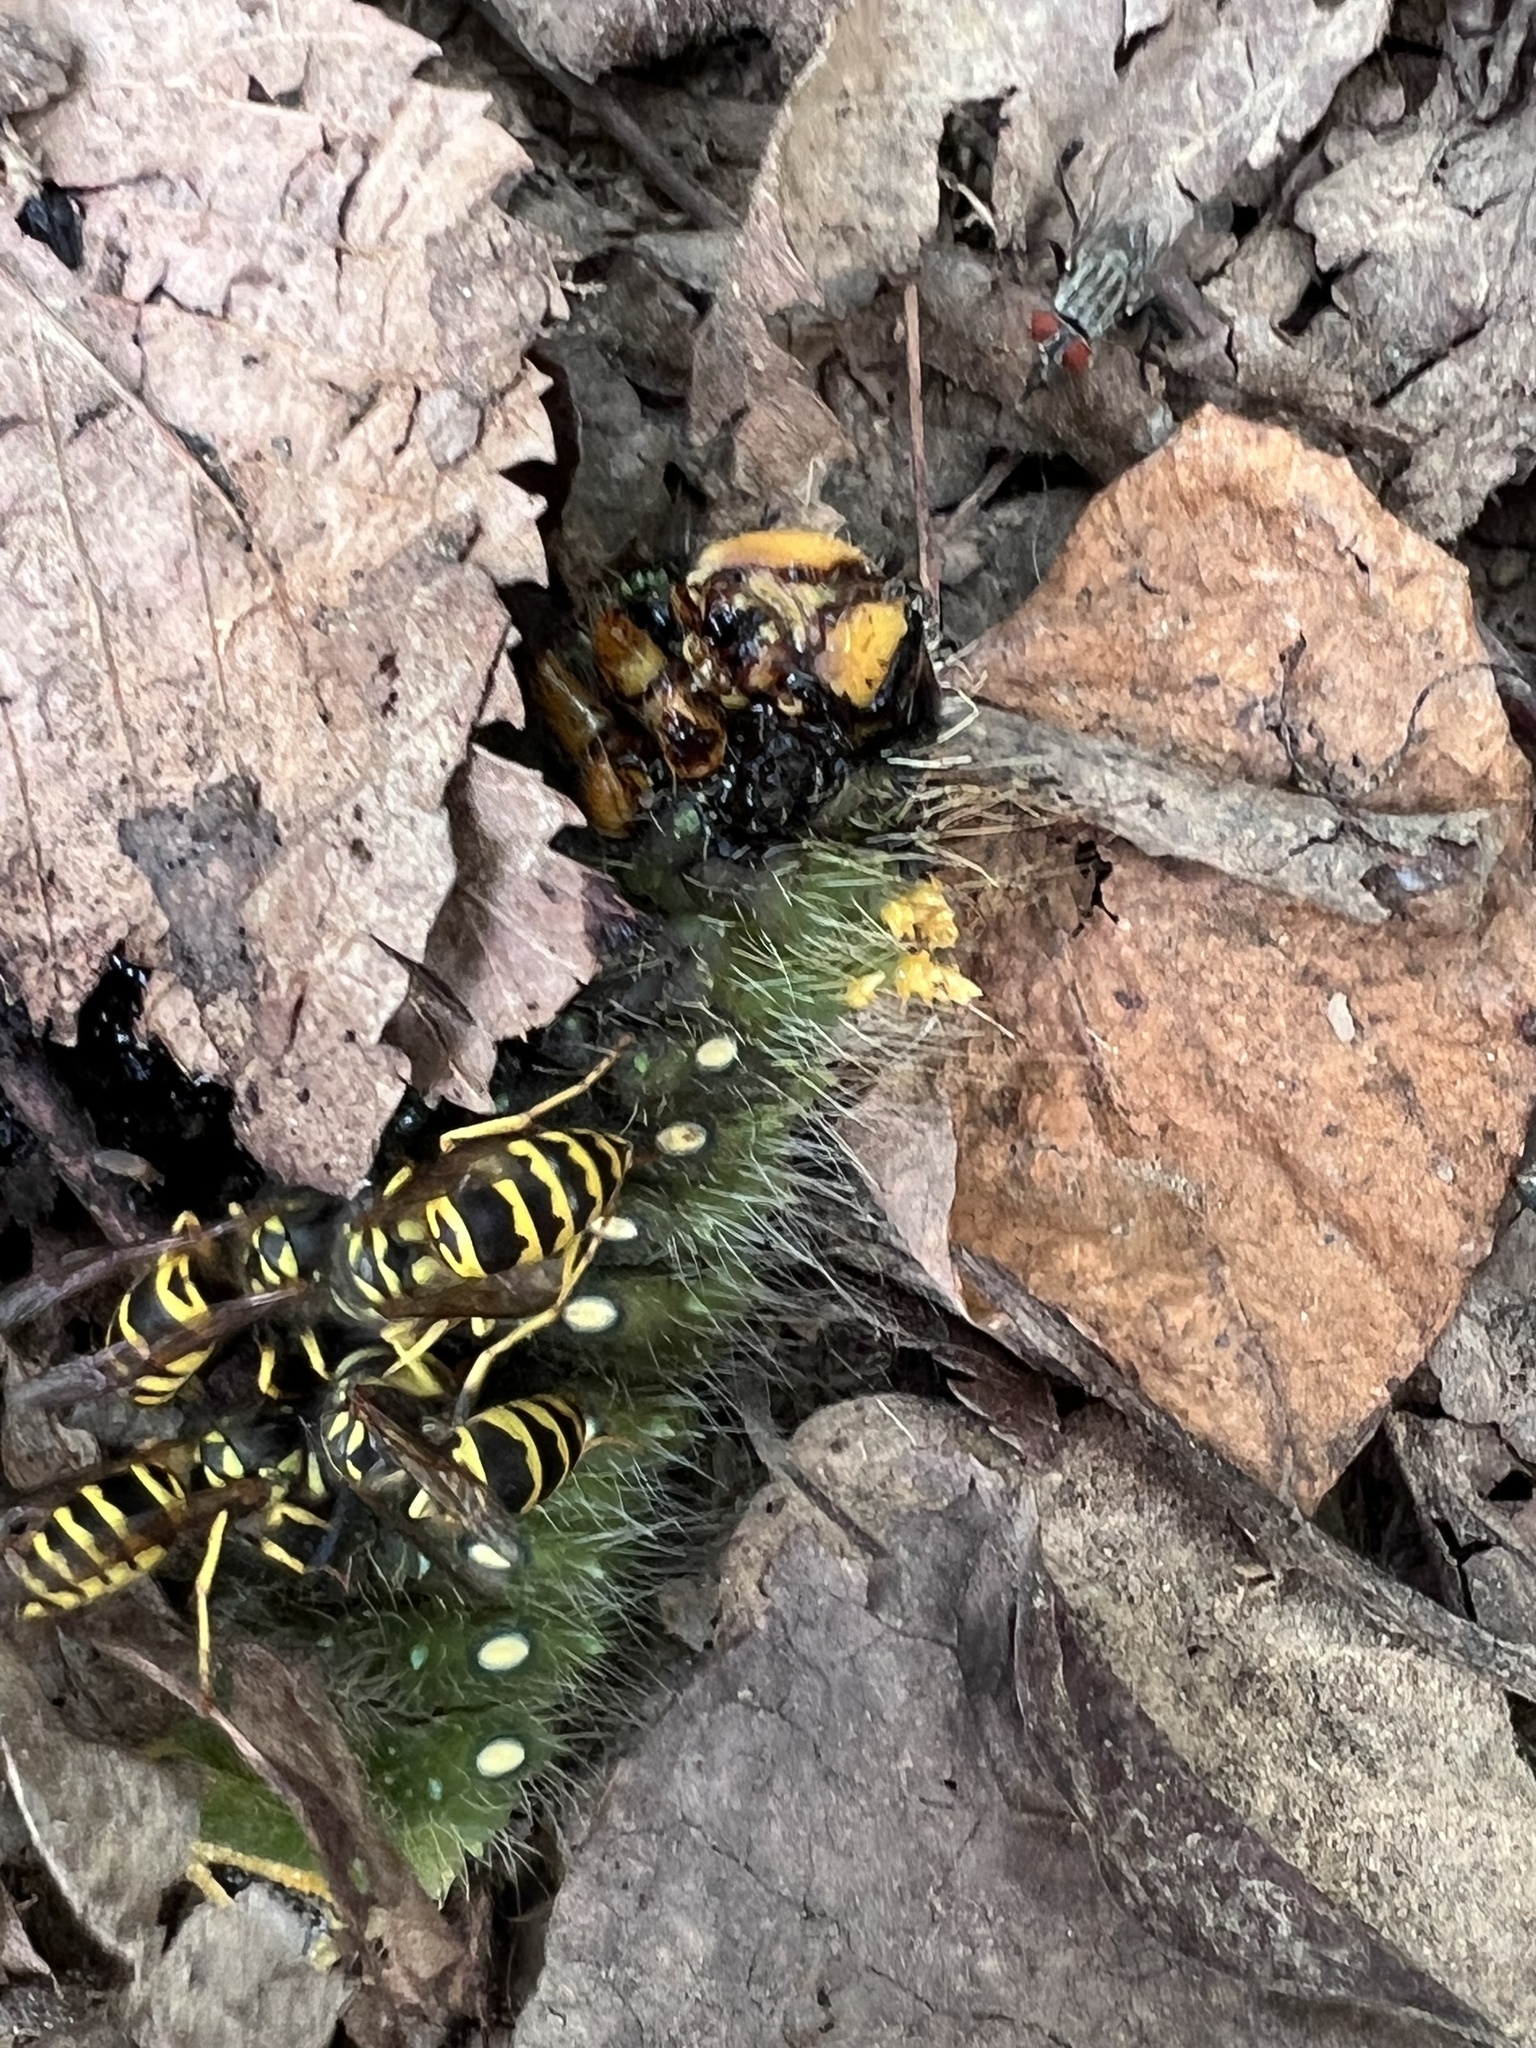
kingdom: Animalia
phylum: Arthropoda
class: Insecta
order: Lepidoptera
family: Saturniidae
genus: Eacles
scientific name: Eacles imperialis
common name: Imperial moth
